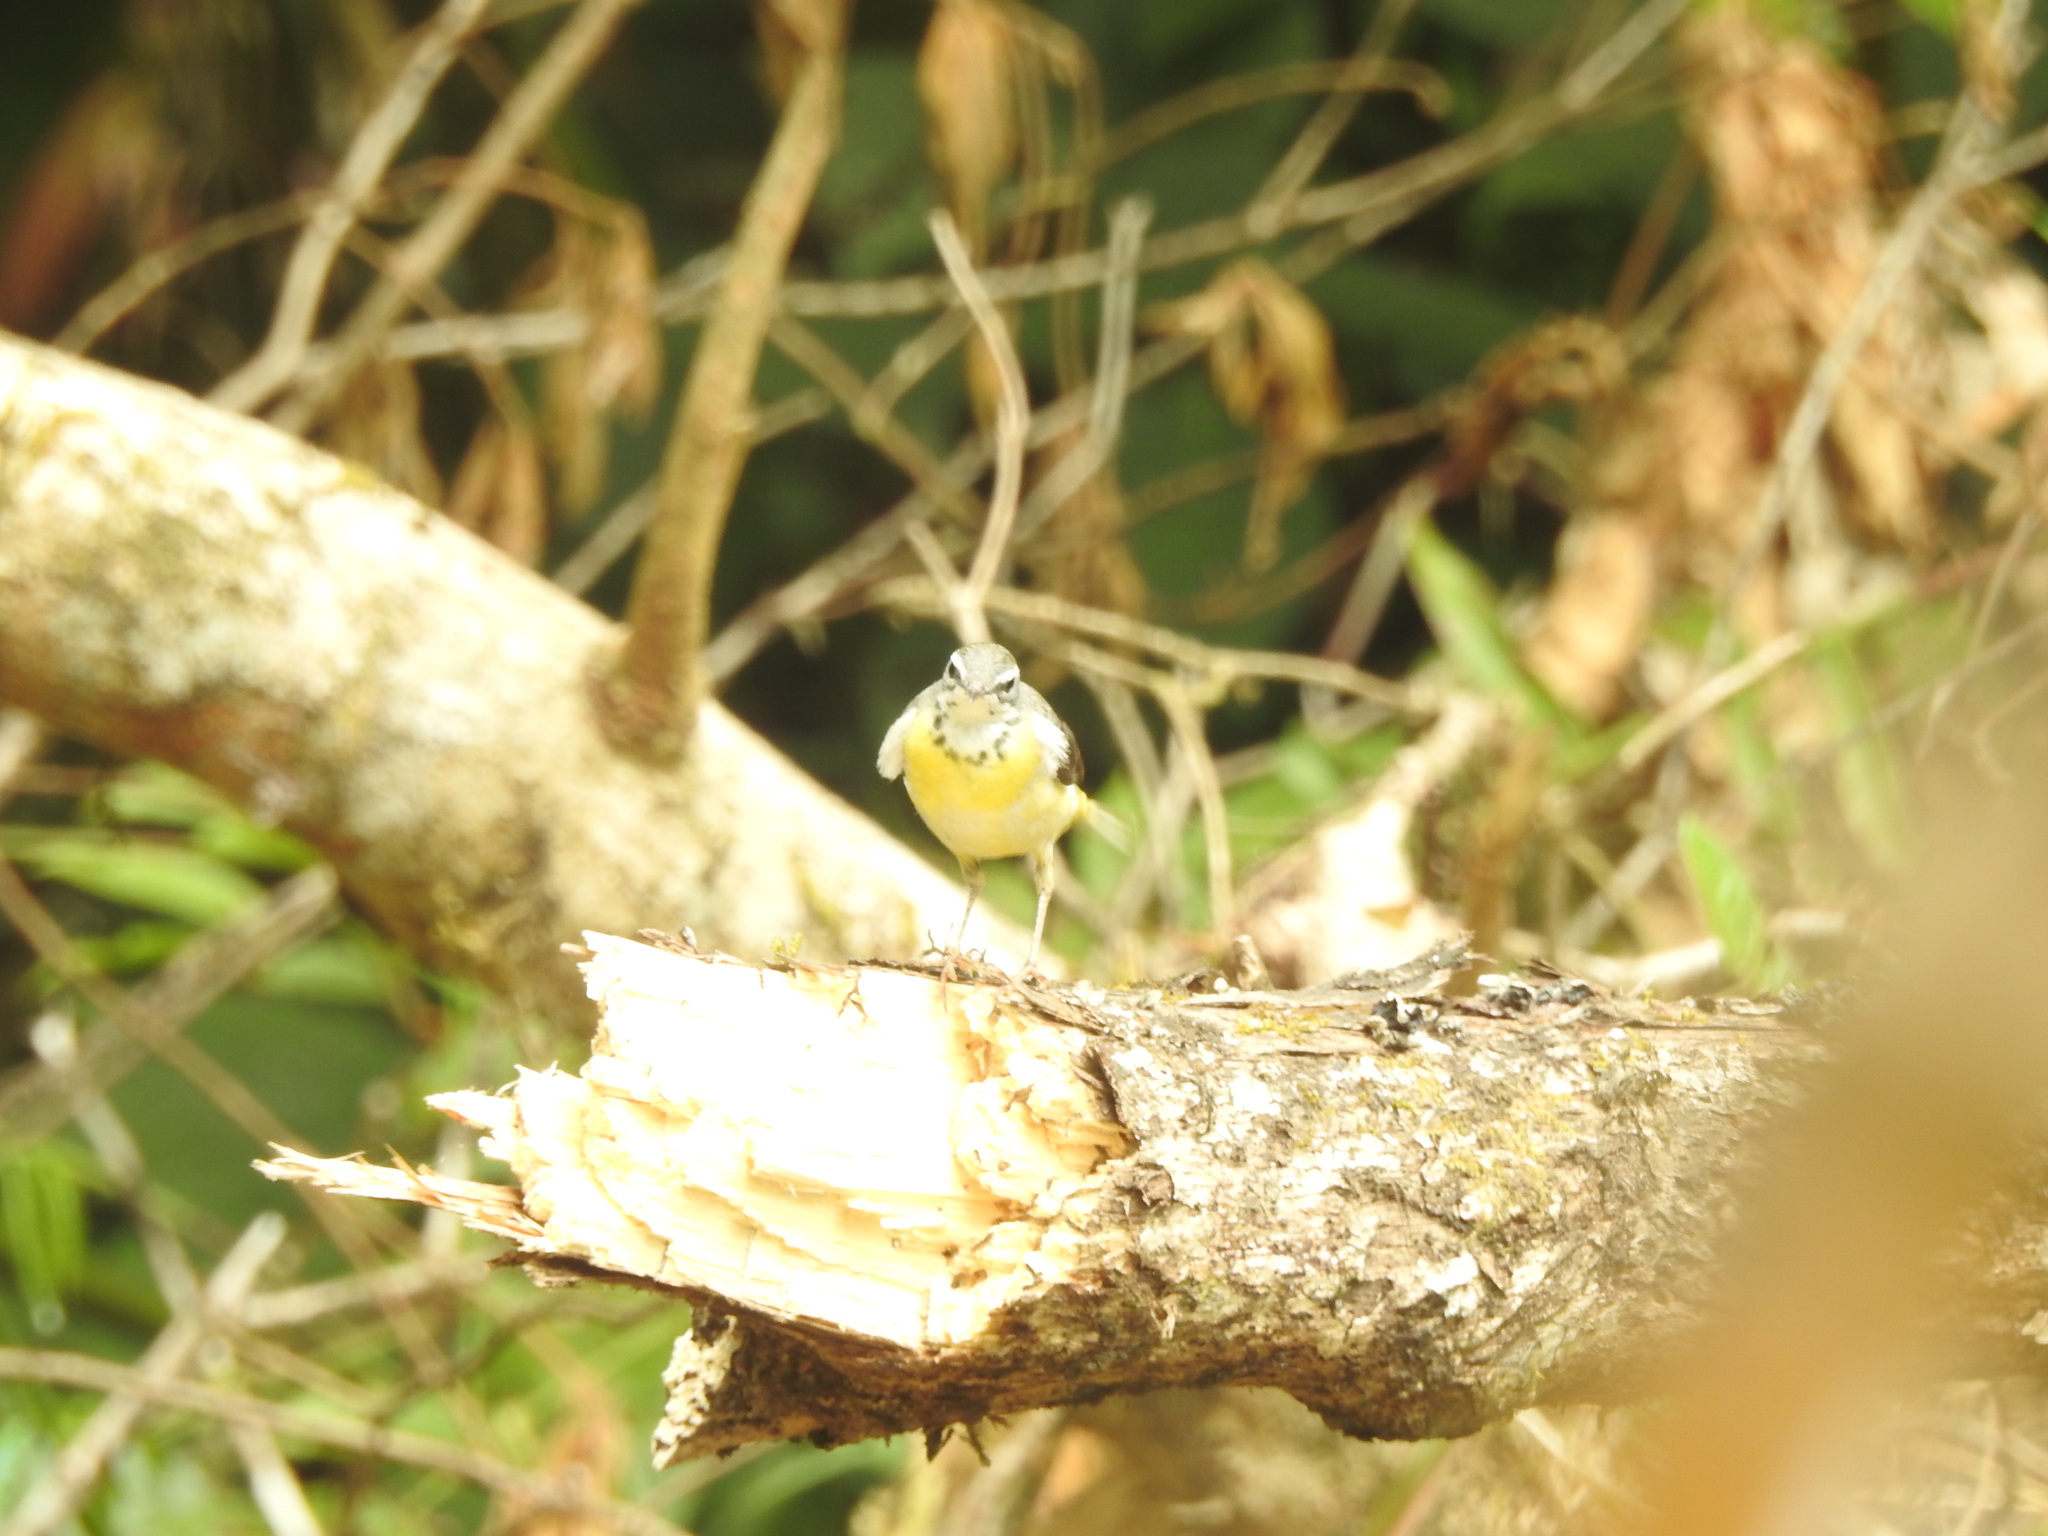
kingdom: Animalia
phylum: Chordata
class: Aves
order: Passeriformes
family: Motacillidae
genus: Motacilla
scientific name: Motacilla cinerea
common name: Grey wagtail
